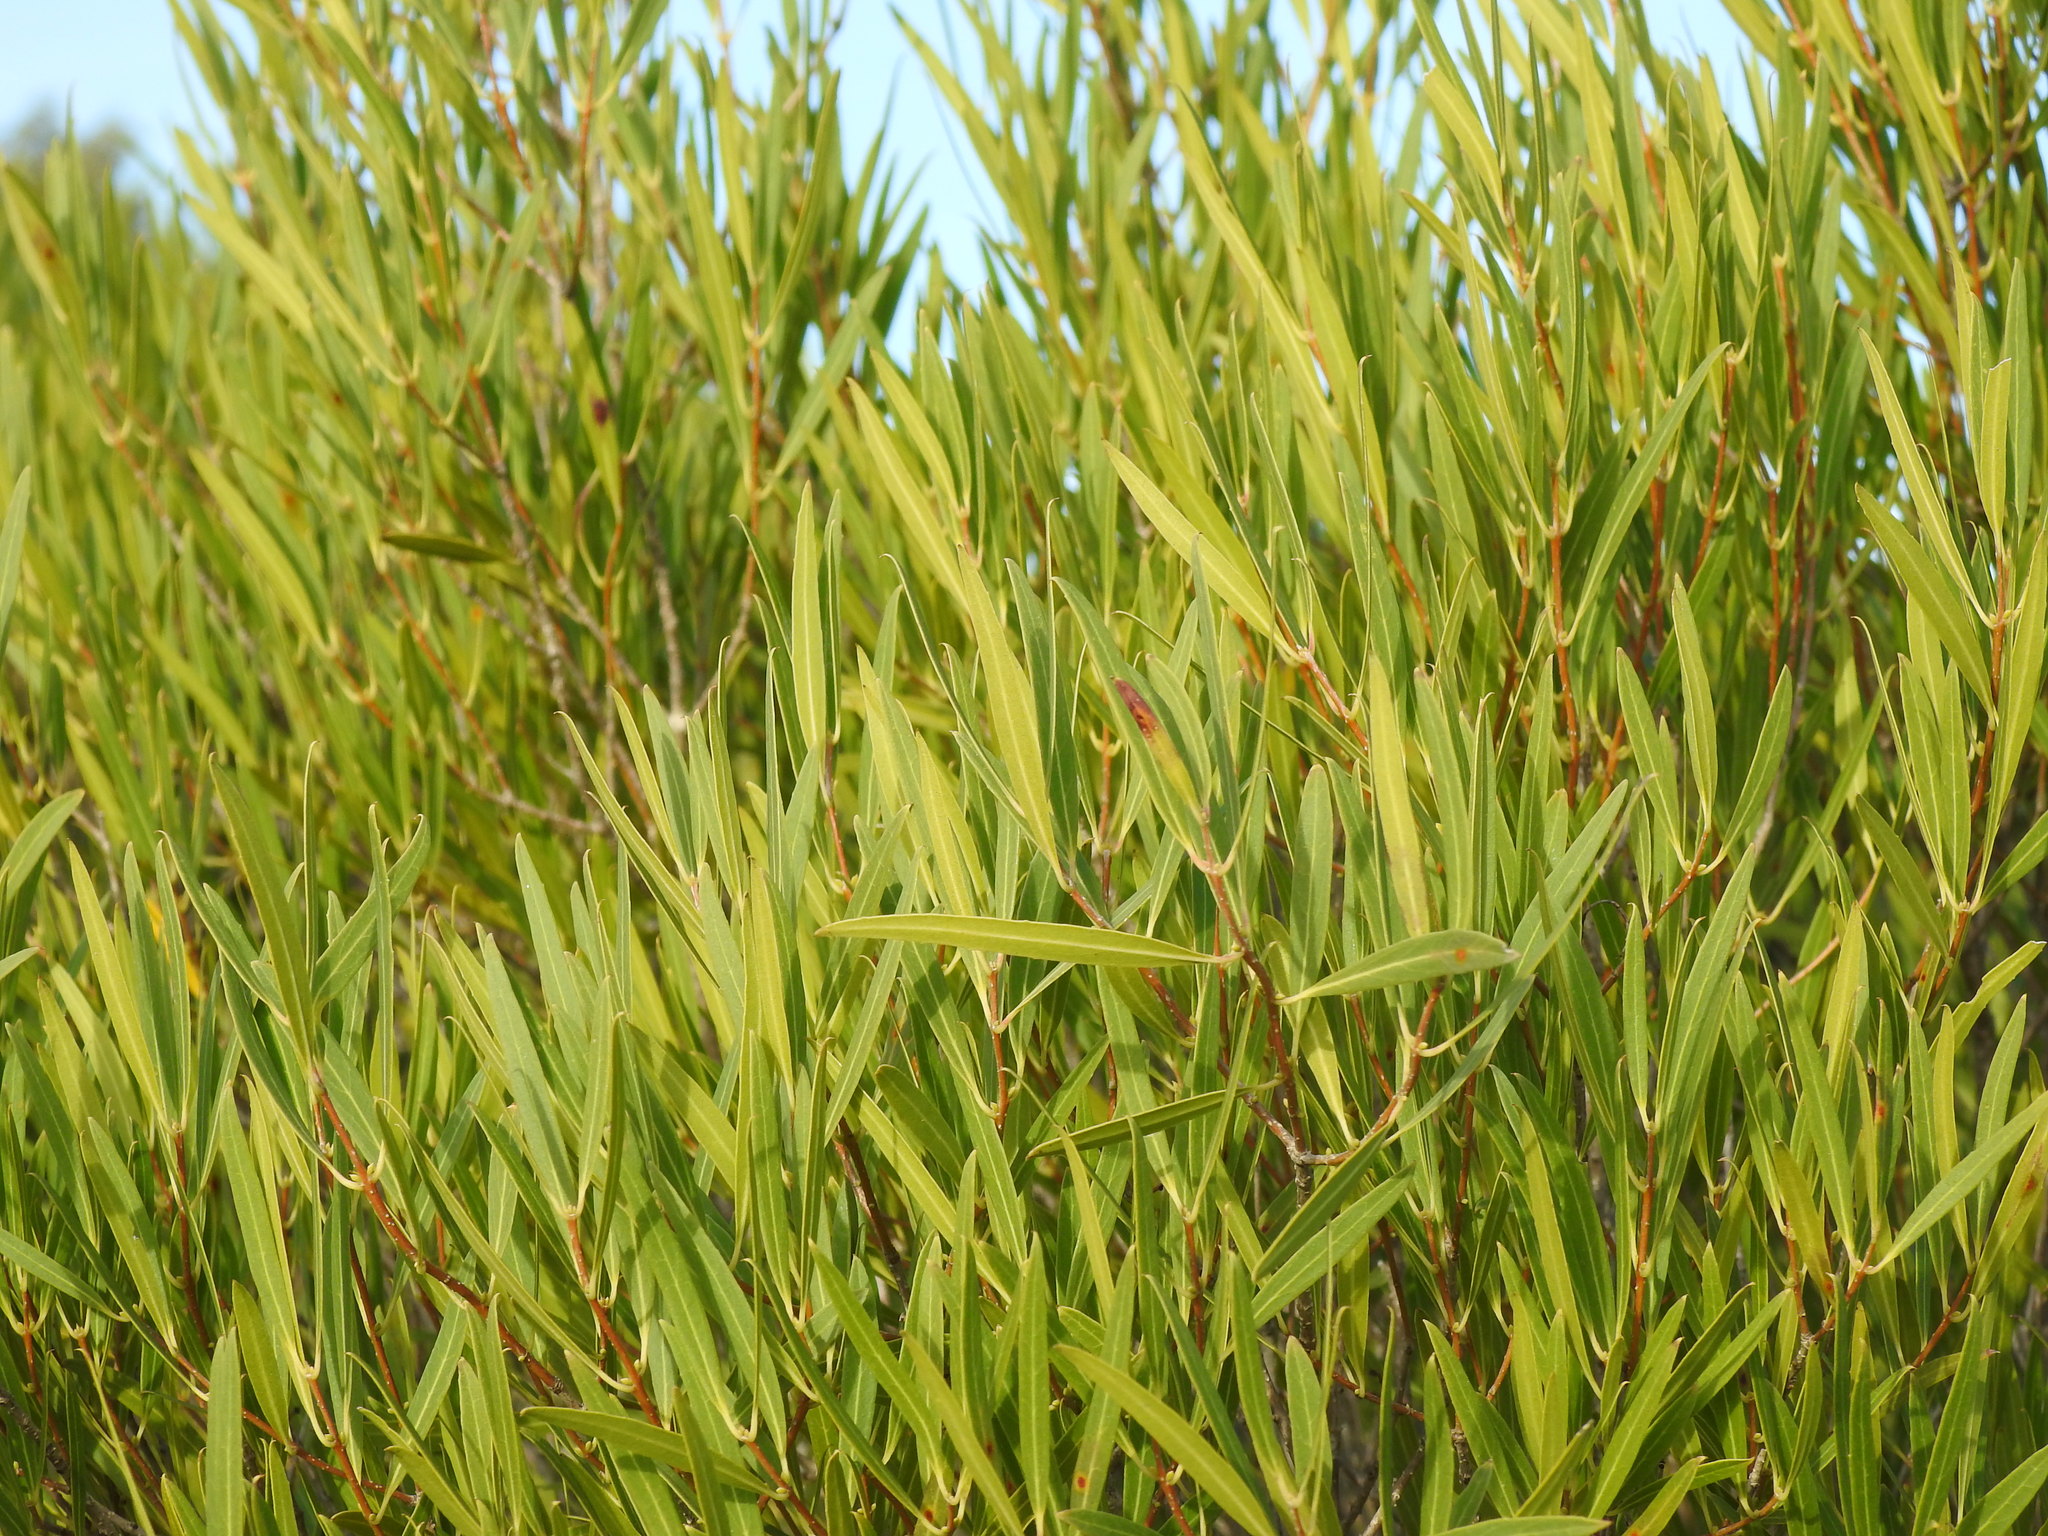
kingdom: Plantae
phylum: Tracheophyta
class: Magnoliopsida
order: Lamiales
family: Oleaceae
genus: Phillyrea
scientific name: Phillyrea angustifolia
